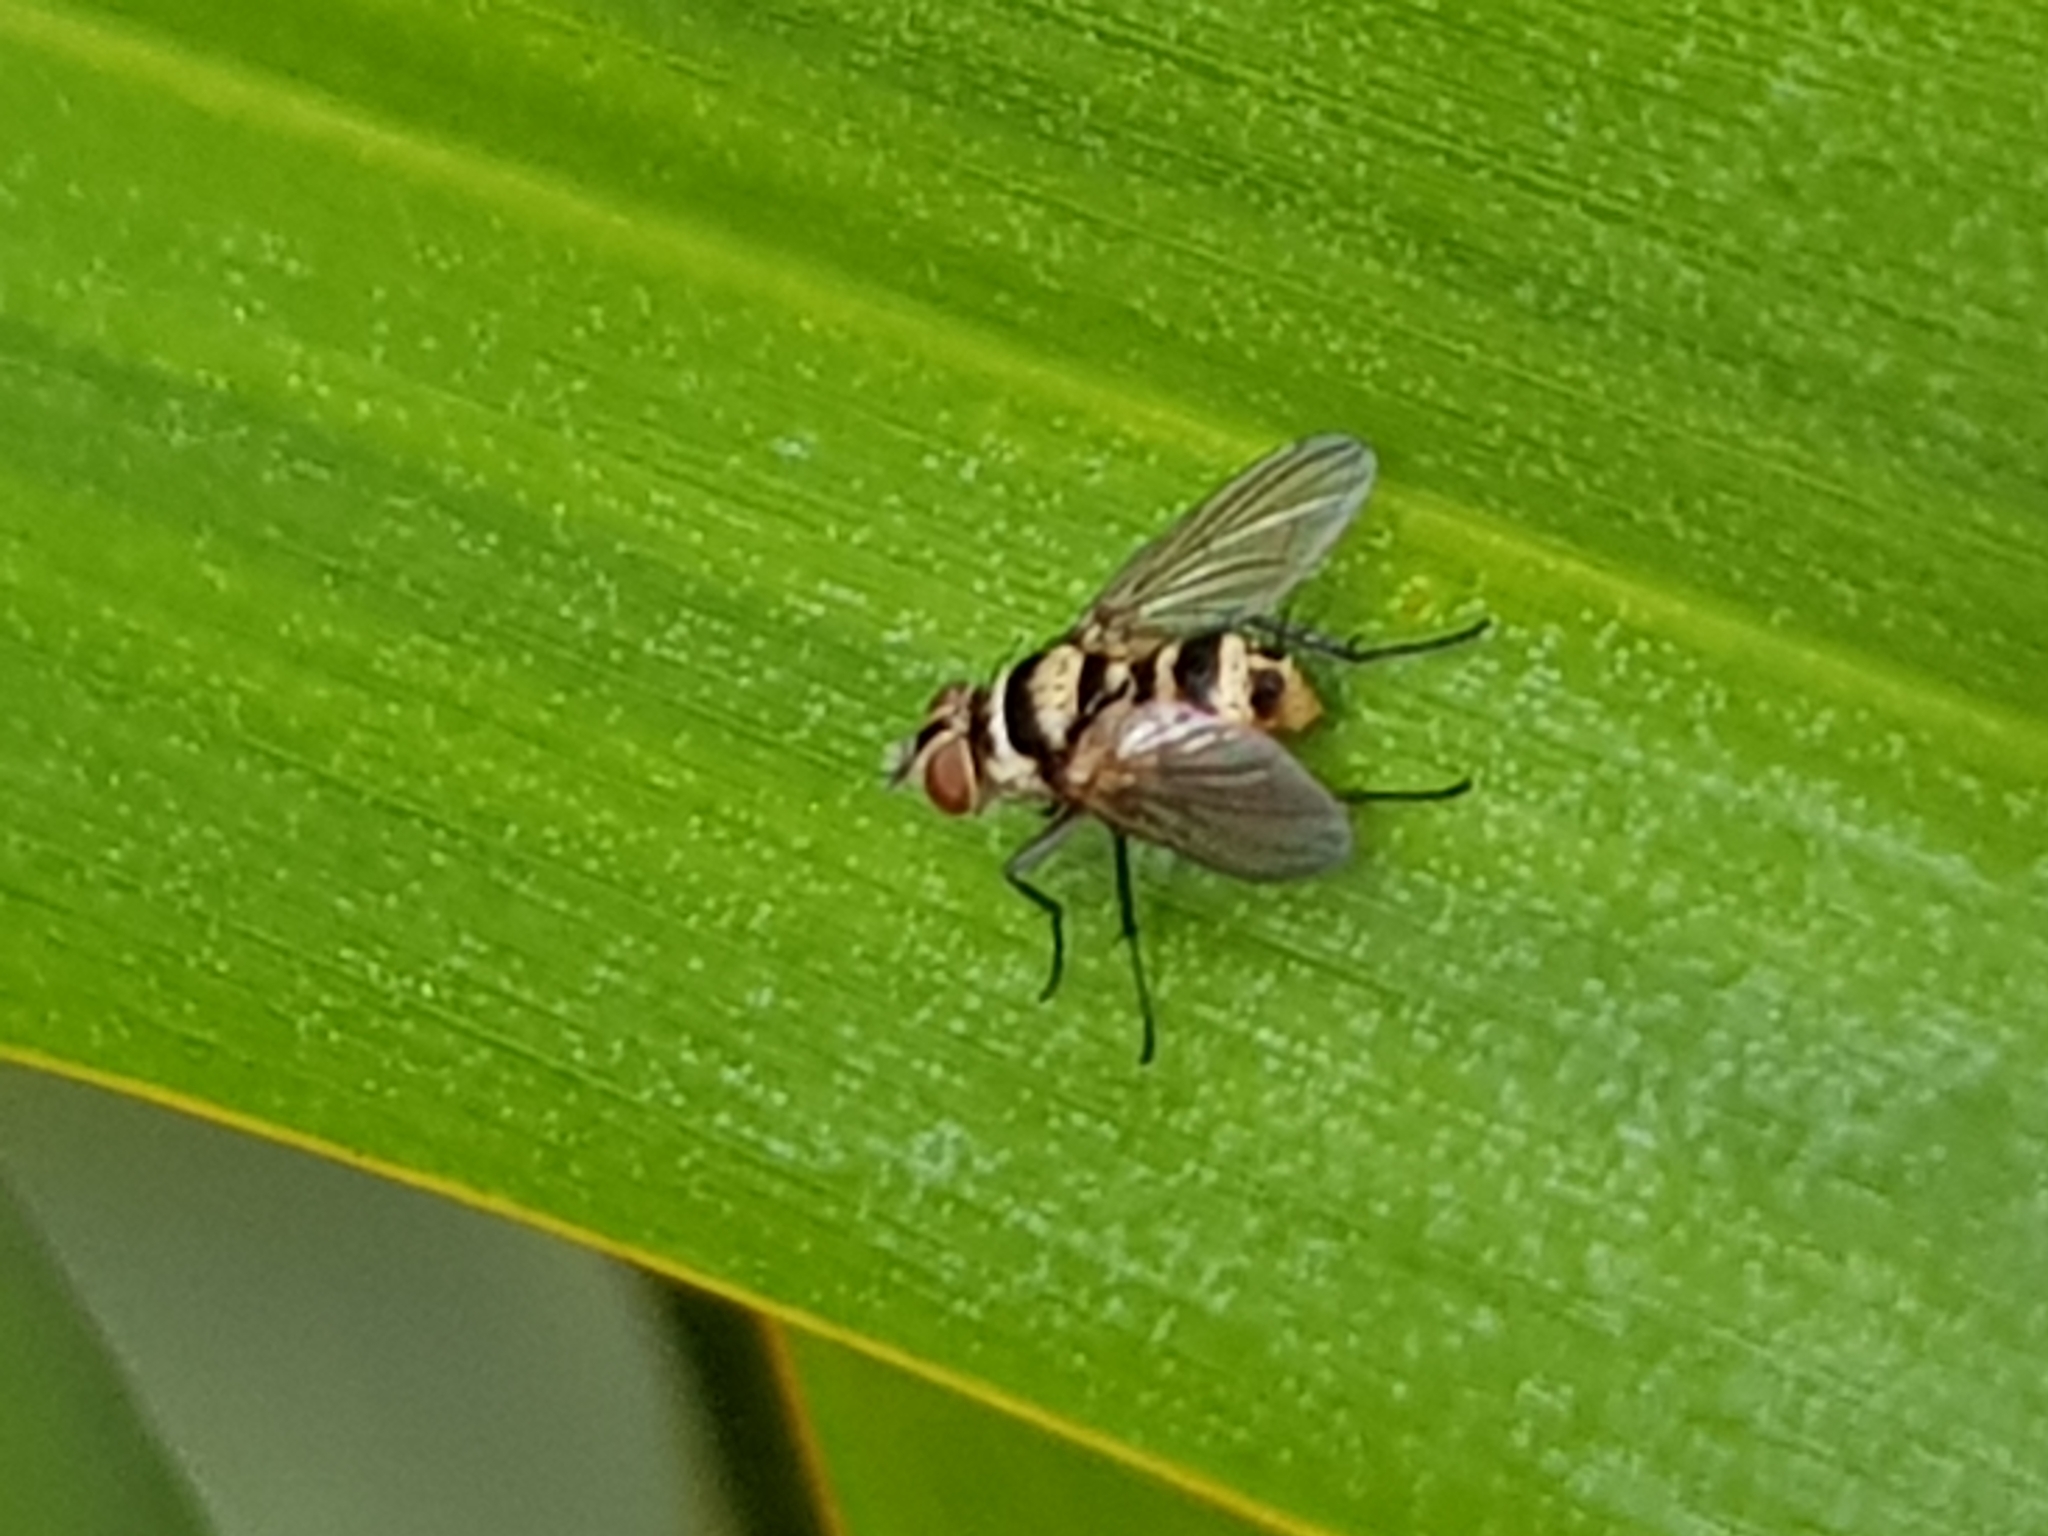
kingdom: Animalia
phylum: Arthropoda
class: Insecta
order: Diptera
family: Tachinidae
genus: Trigonospila
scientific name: Trigonospila brevifacies
